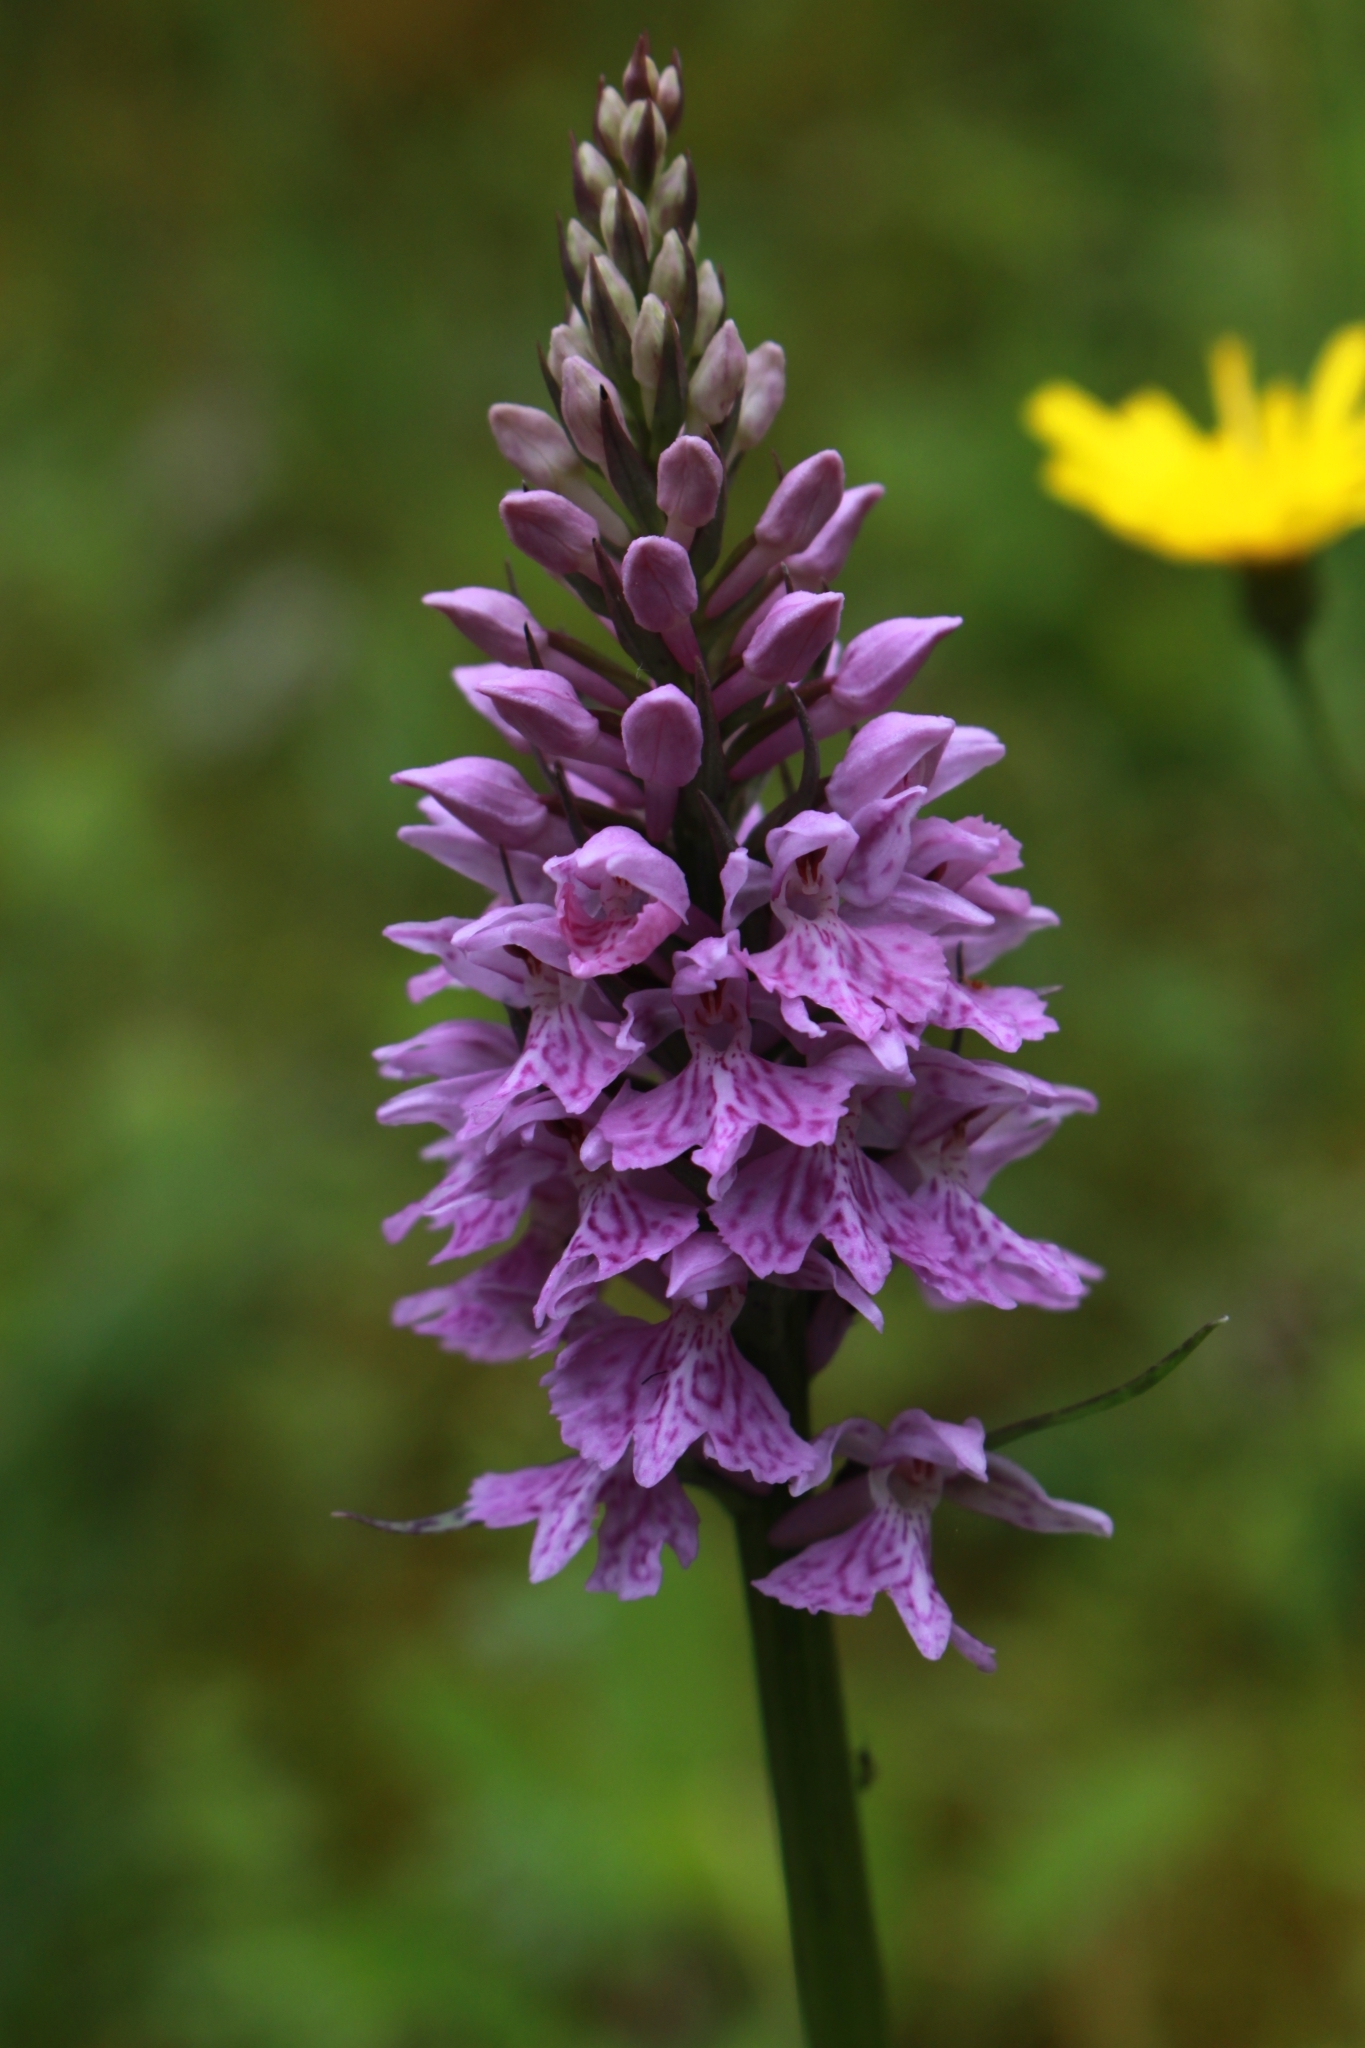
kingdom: Plantae
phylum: Tracheophyta
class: Liliopsida
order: Asparagales
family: Orchidaceae
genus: Dactylorhiza
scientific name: Dactylorhiza maculata
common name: Heath spotted-orchid
